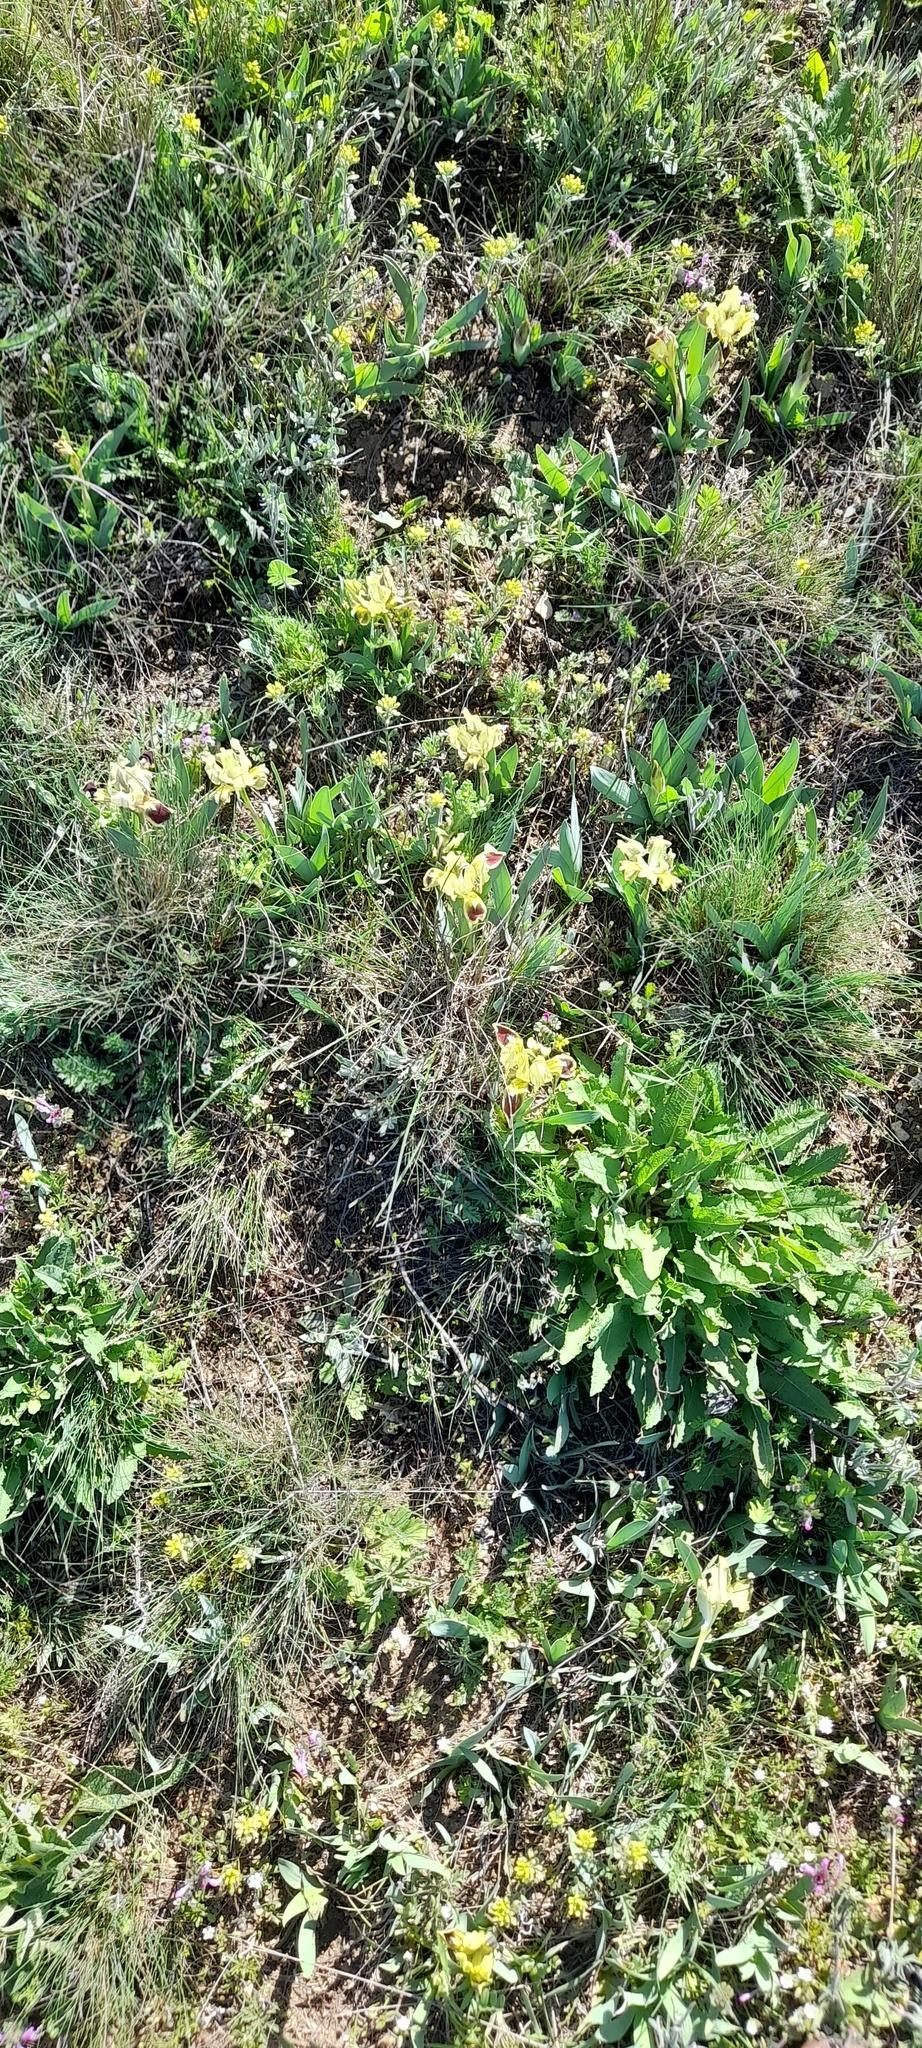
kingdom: Plantae
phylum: Tracheophyta
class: Liliopsida
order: Asparagales
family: Iridaceae
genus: Iris
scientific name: Iris pumila
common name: Dwarf iris
